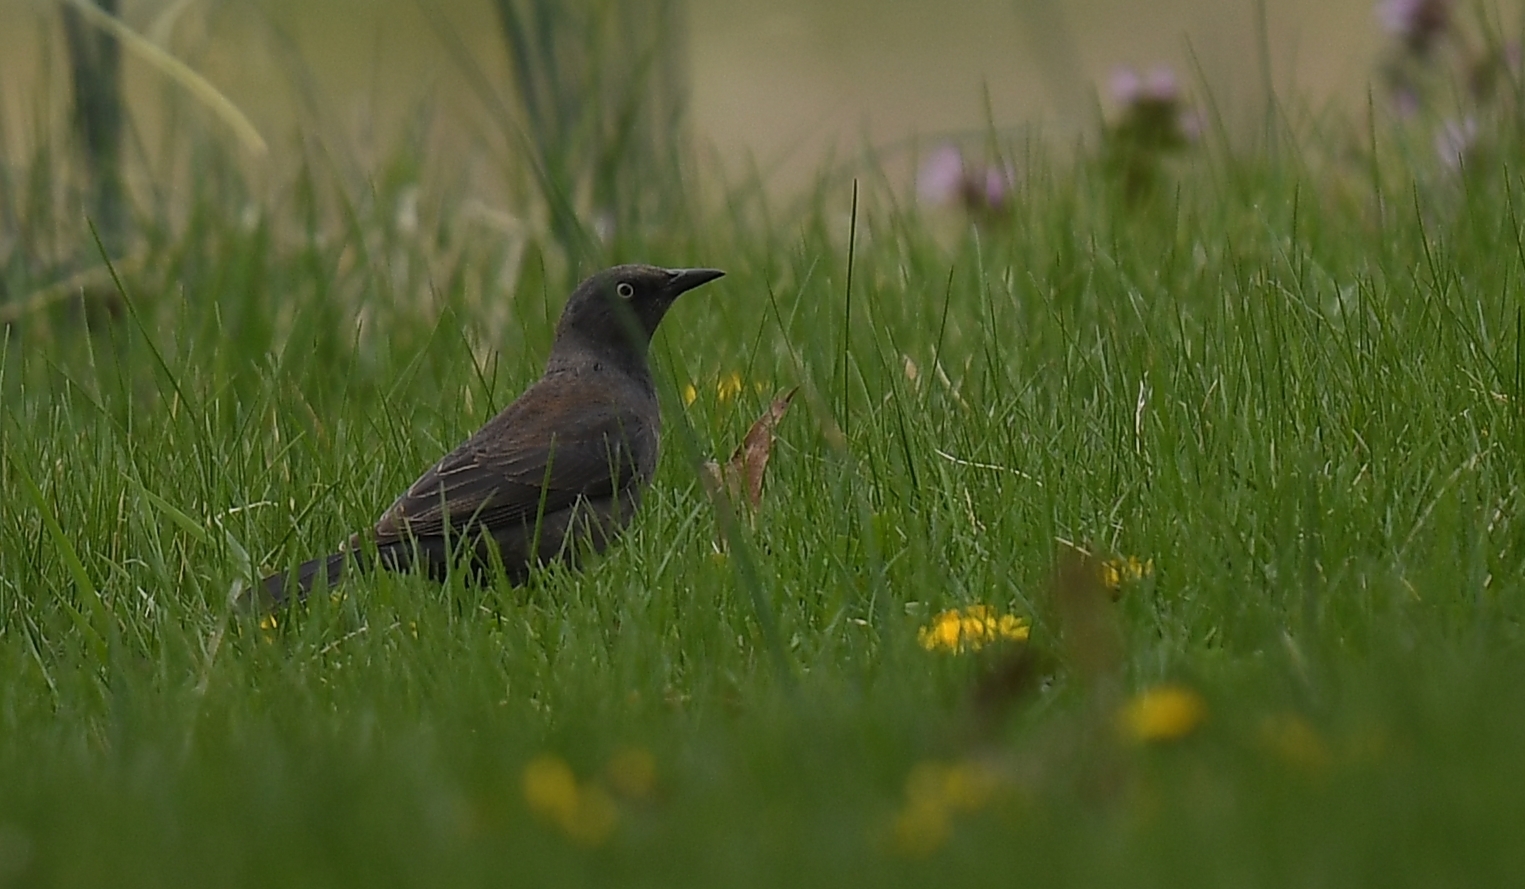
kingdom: Animalia
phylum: Chordata
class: Aves
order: Passeriformes
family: Icteridae
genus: Euphagus
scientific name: Euphagus carolinus
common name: Rusty blackbird
